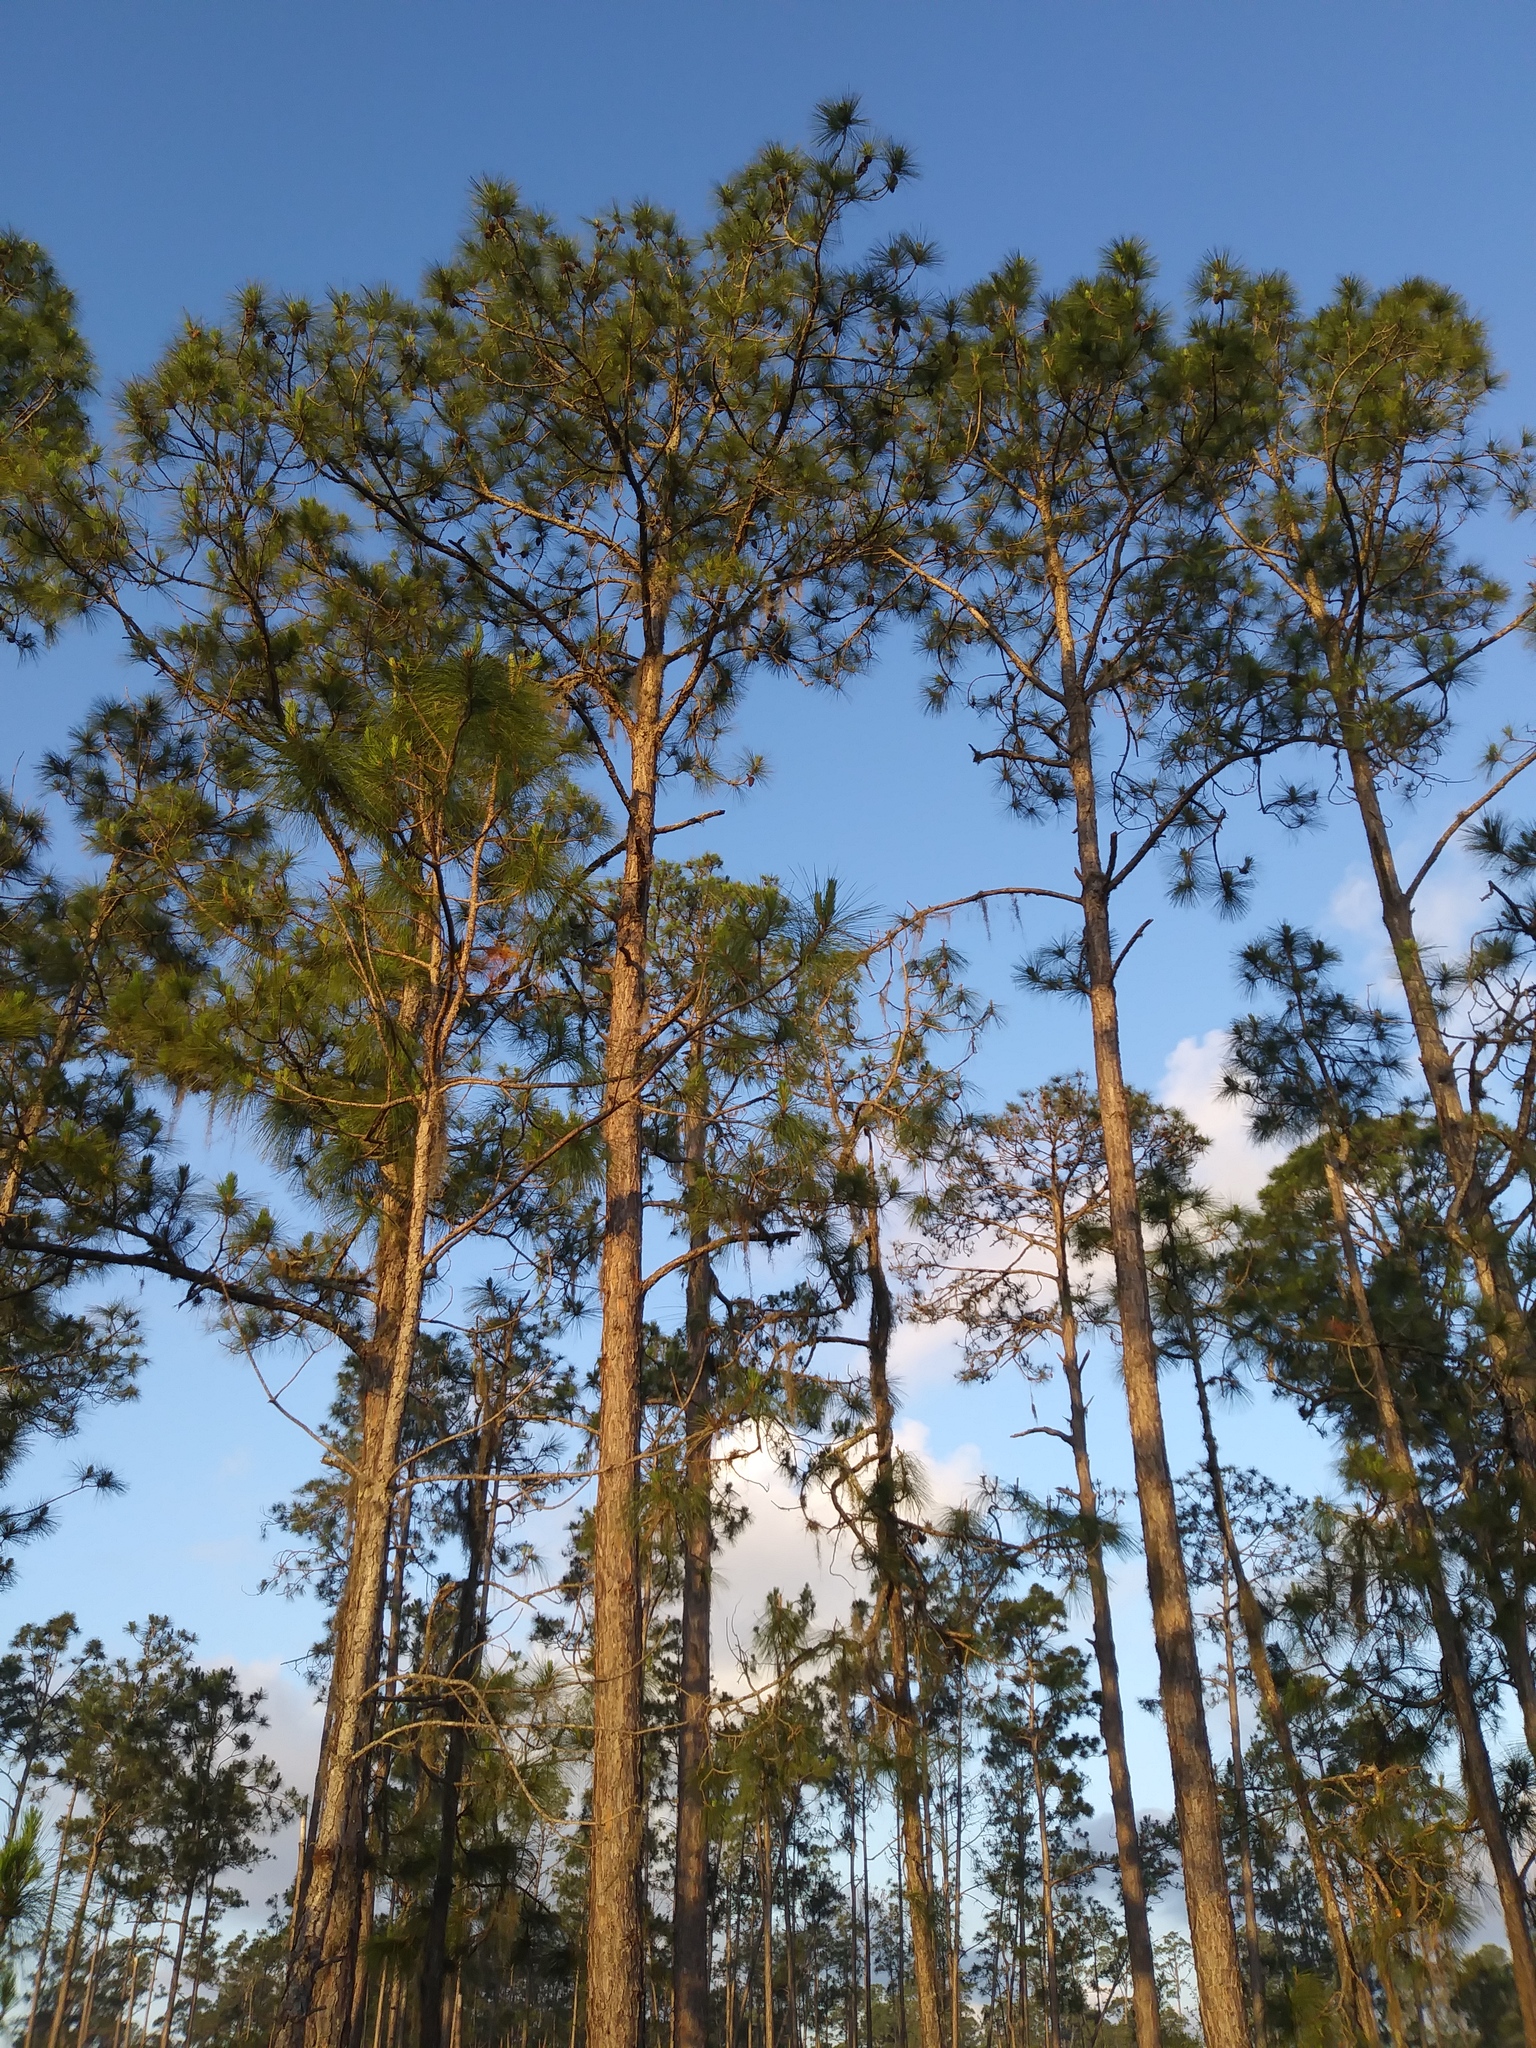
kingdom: Plantae
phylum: Tracheophyta
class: Pinopsida
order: Pinales
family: Pinaceae
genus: Pinus
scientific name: Pinus elliottii
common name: Slash pine
